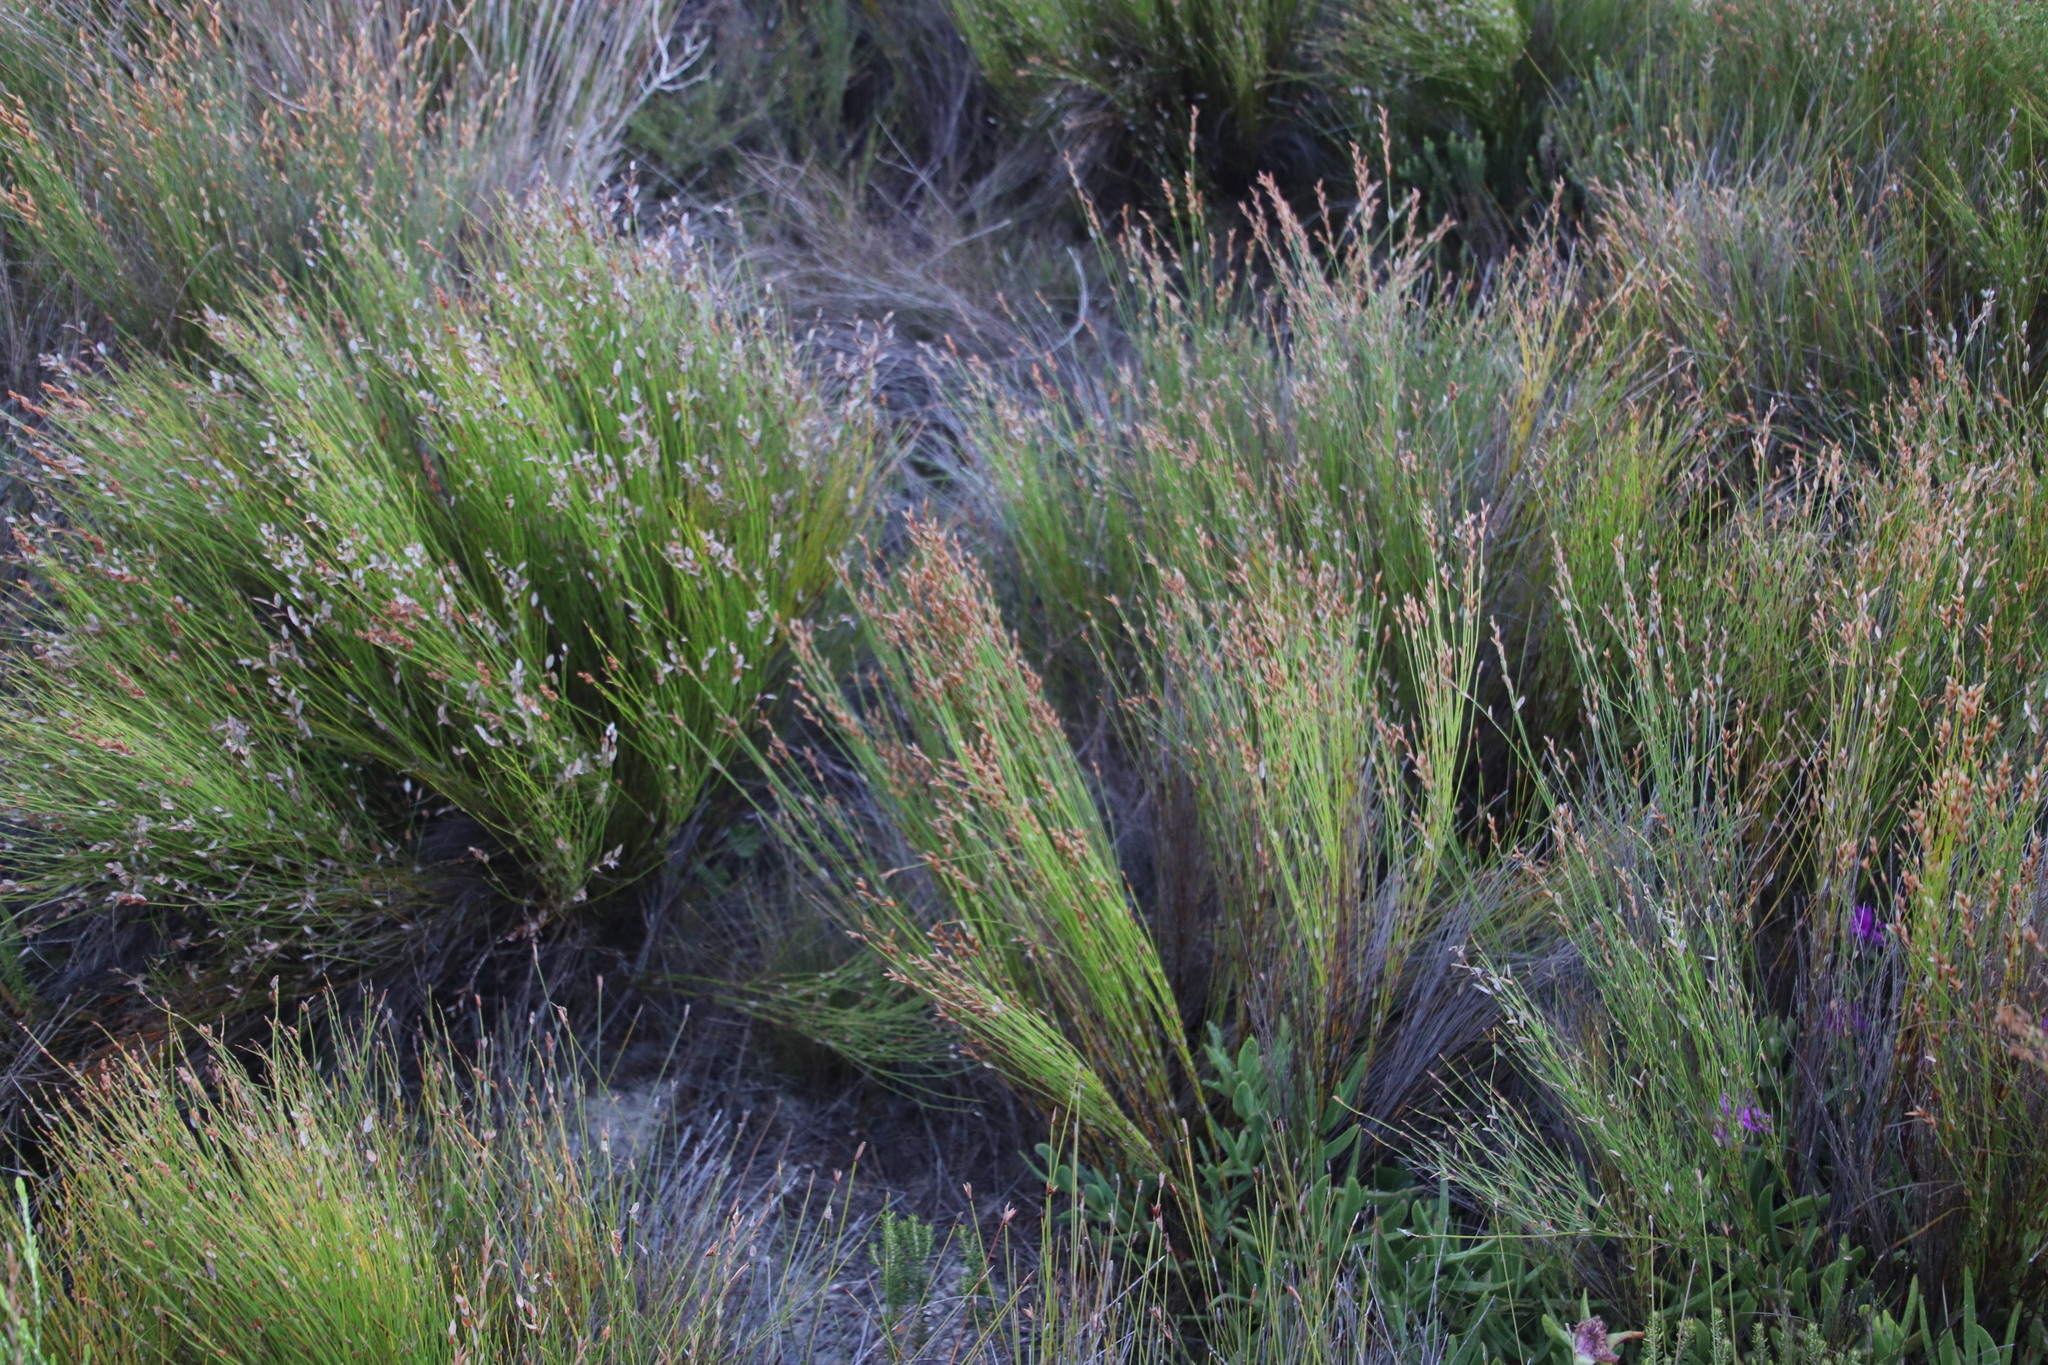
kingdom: Plantae
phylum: Tracheophyta
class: Liliopsida
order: Poales
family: Restionaceae
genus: Elegia
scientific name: Elegia microcarpa
